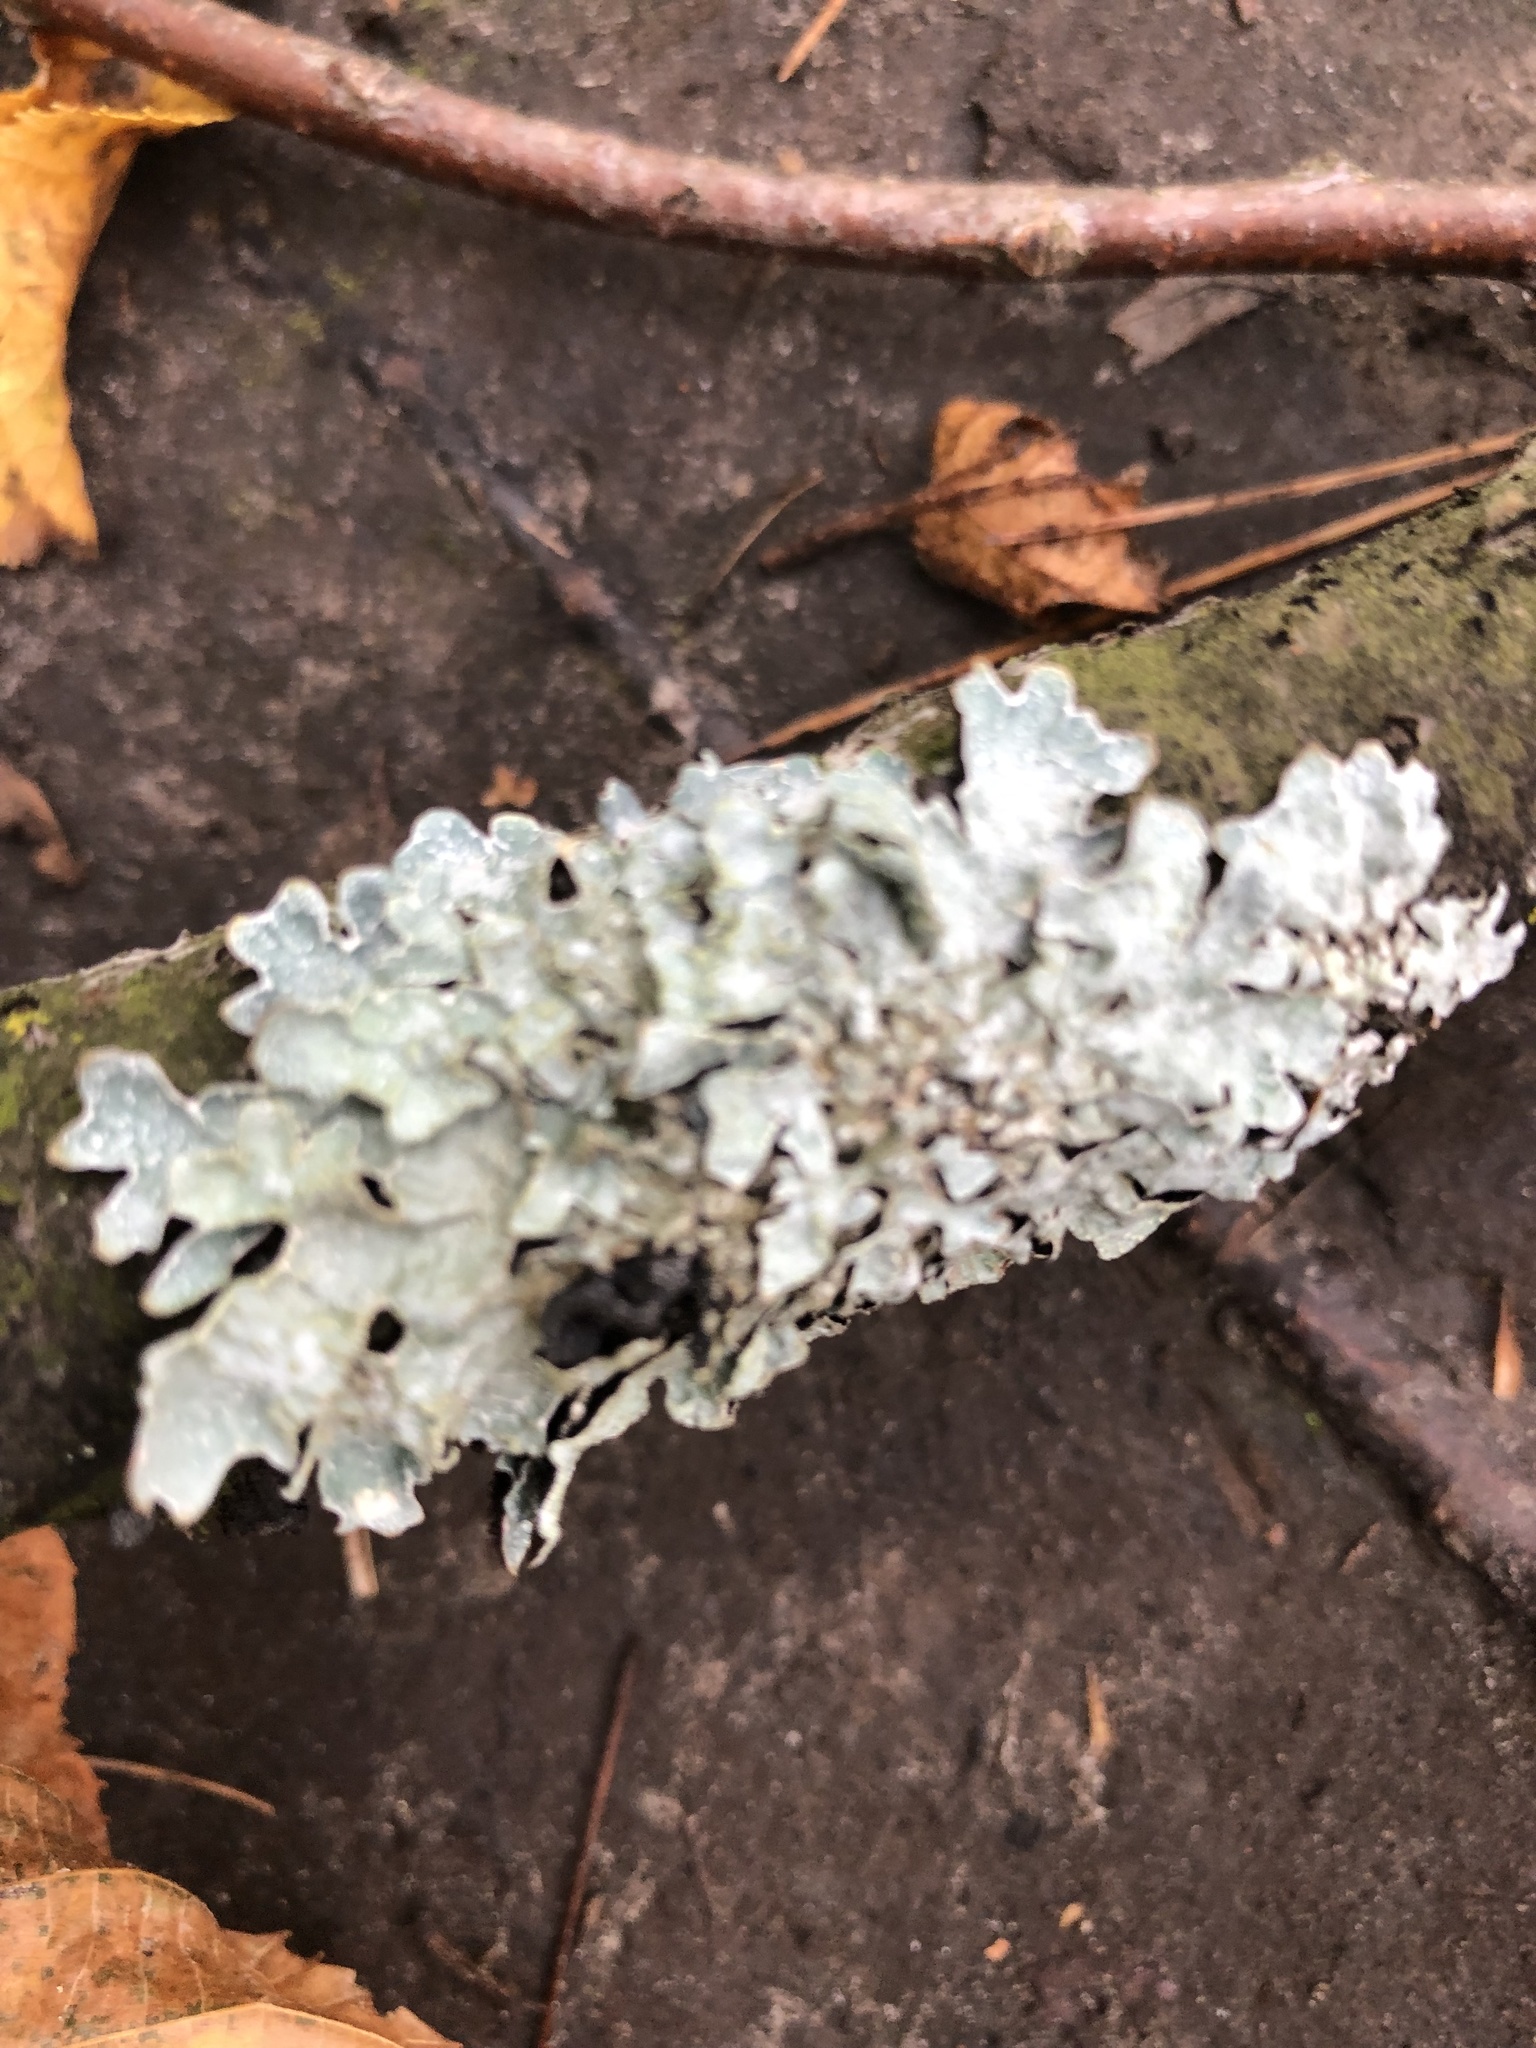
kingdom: Fungi
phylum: Ascomycota
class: Lecanoromycetes
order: Lecanorales
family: Parmeliaceae
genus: Parmelia
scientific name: Parmelia sulcata
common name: Netted shield lichen
